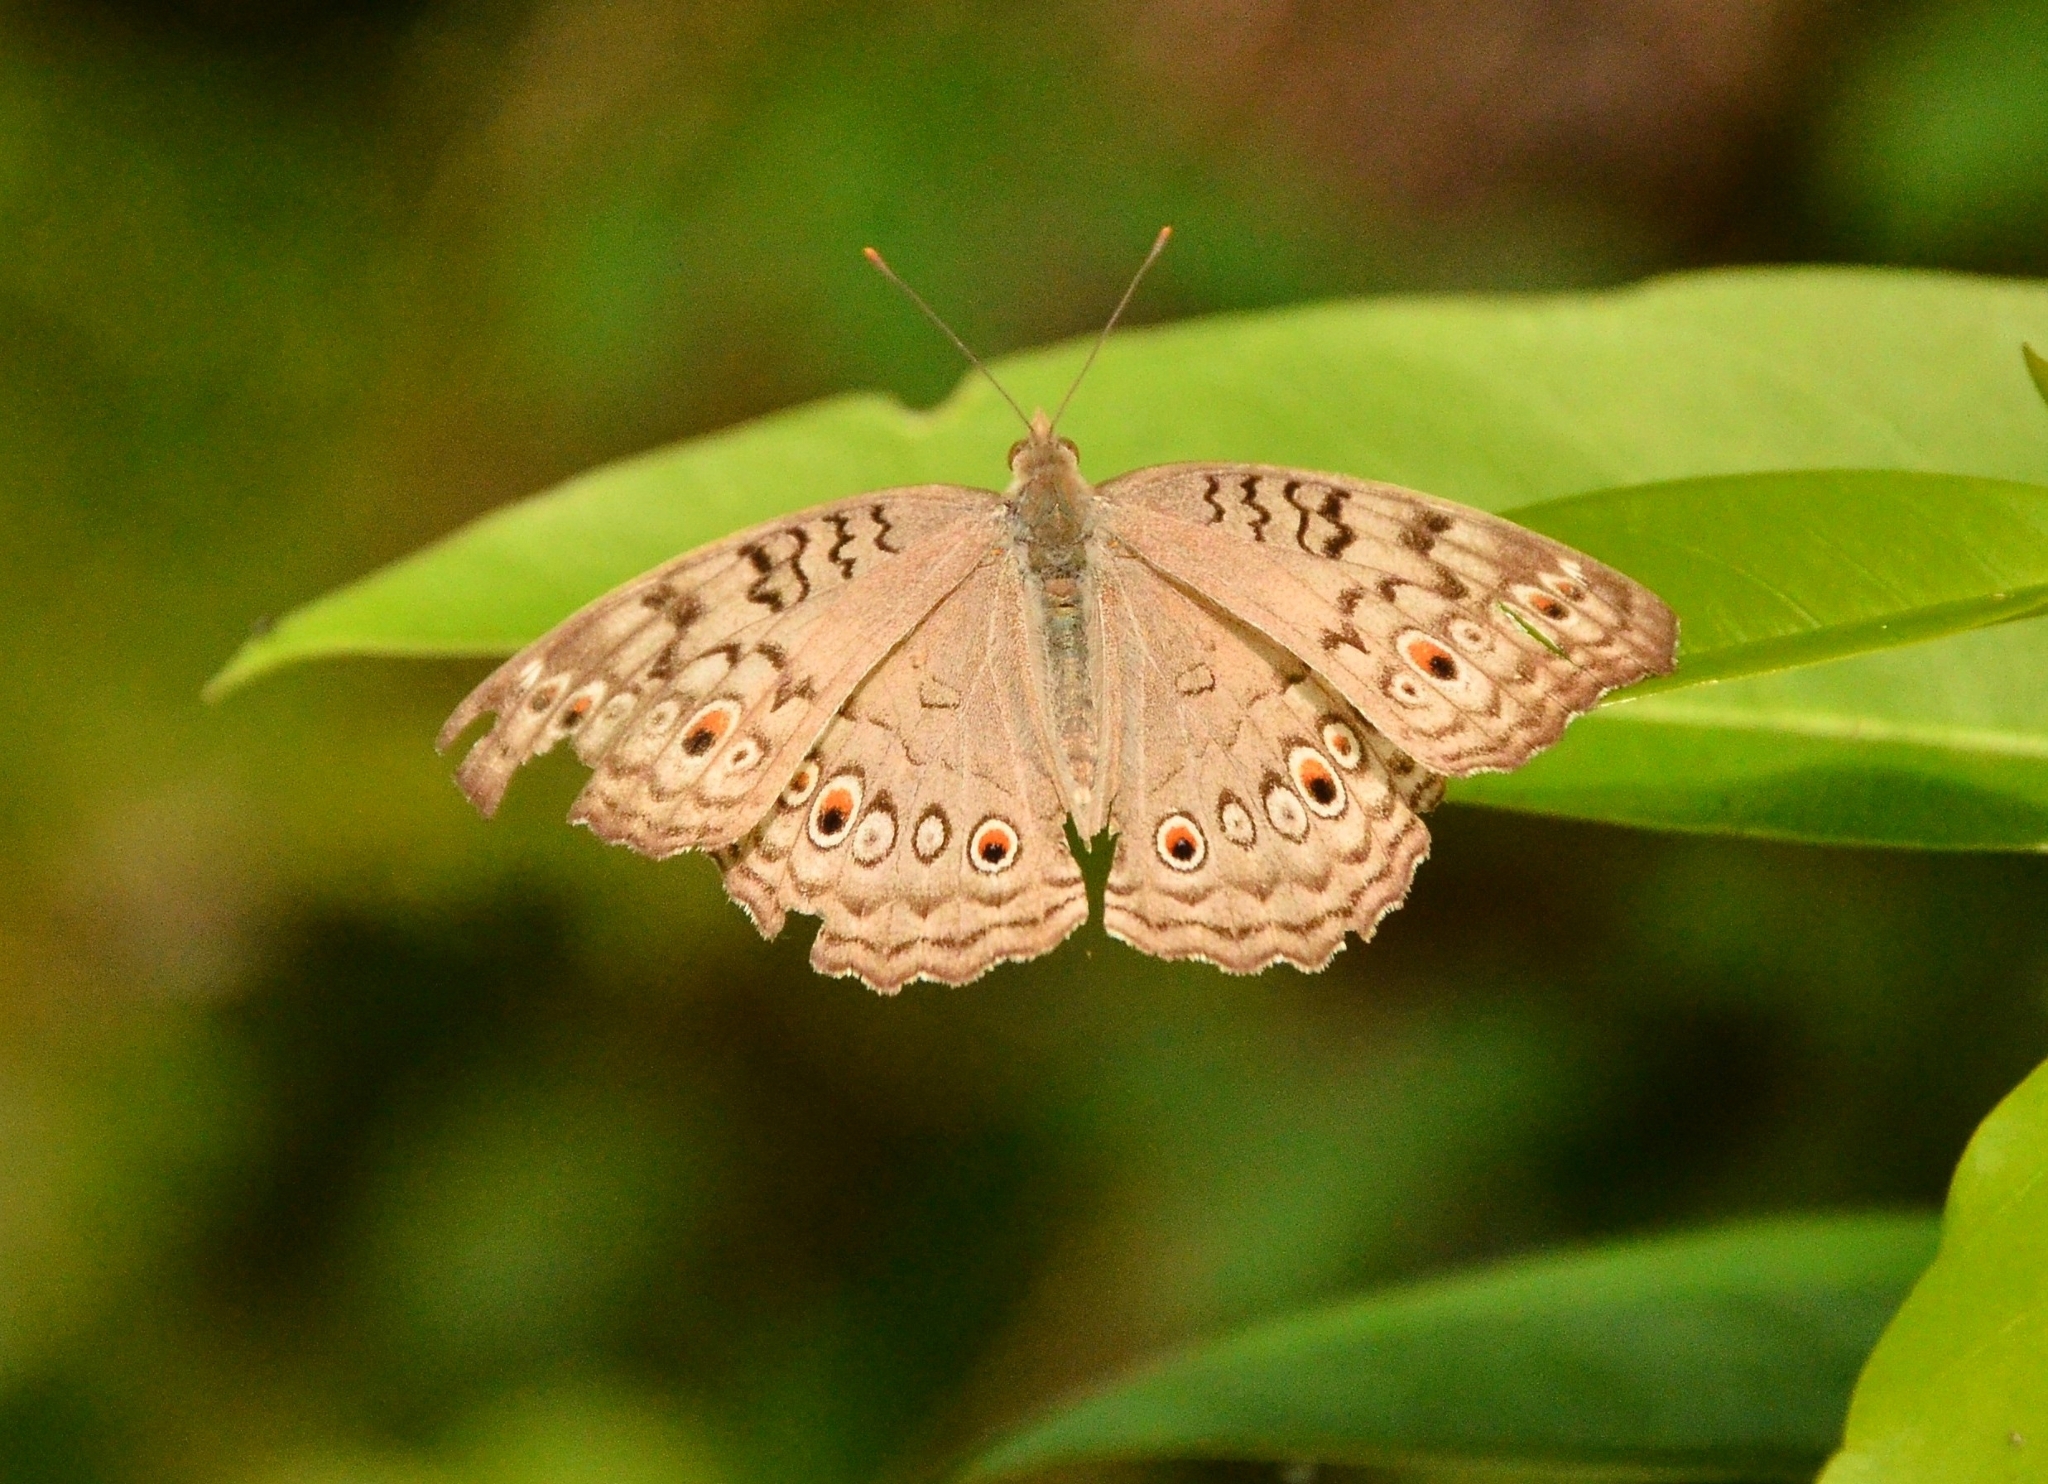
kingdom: Animalia
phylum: Arthropoda
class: Insecta
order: Lepidoptera
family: Nymphalidae
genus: Junonia
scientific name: Junonia atlites
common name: Grey pansy
